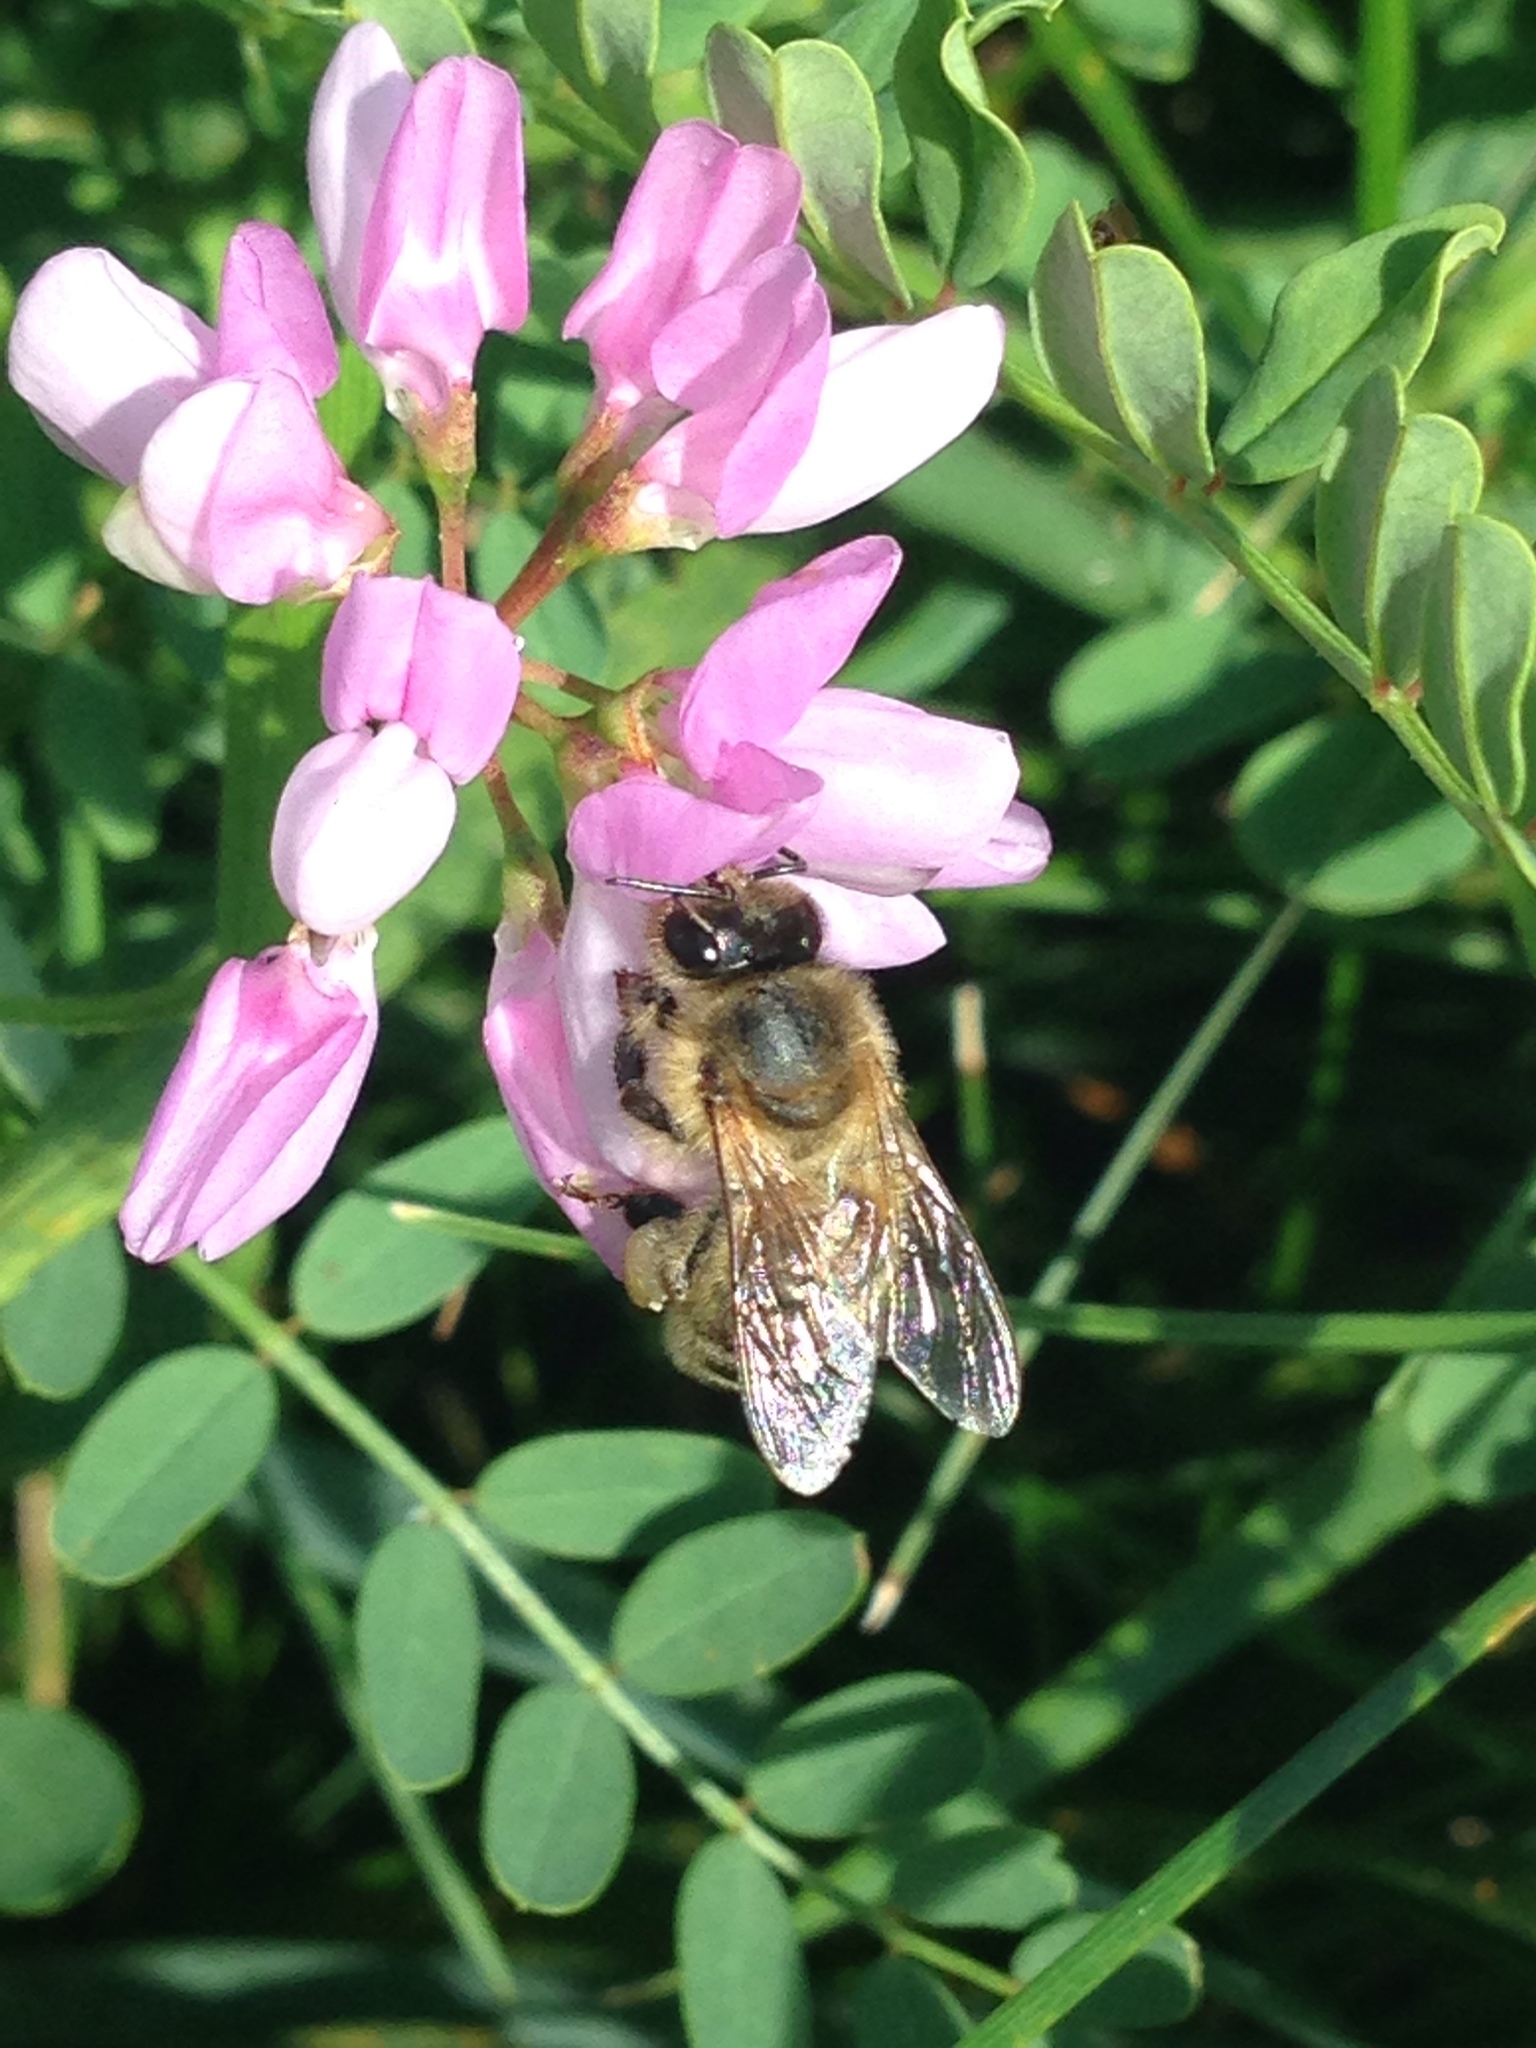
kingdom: Animalia
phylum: Arthropoda
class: Insecta
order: Hymenoptera
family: Apidae
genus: Apis
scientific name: Apis mellifera
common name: Honey bee
